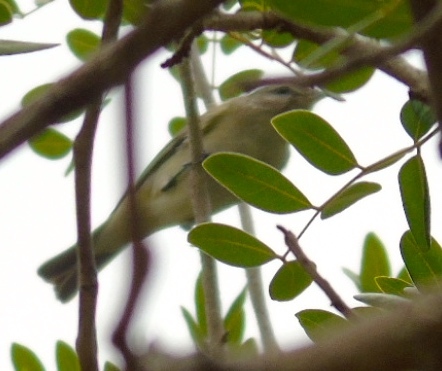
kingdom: Animalia
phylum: Chordata
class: Aves
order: Passeriformes
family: Vireonidae
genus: Vireo
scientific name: Vireo gilvus
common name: Warbling vireo
